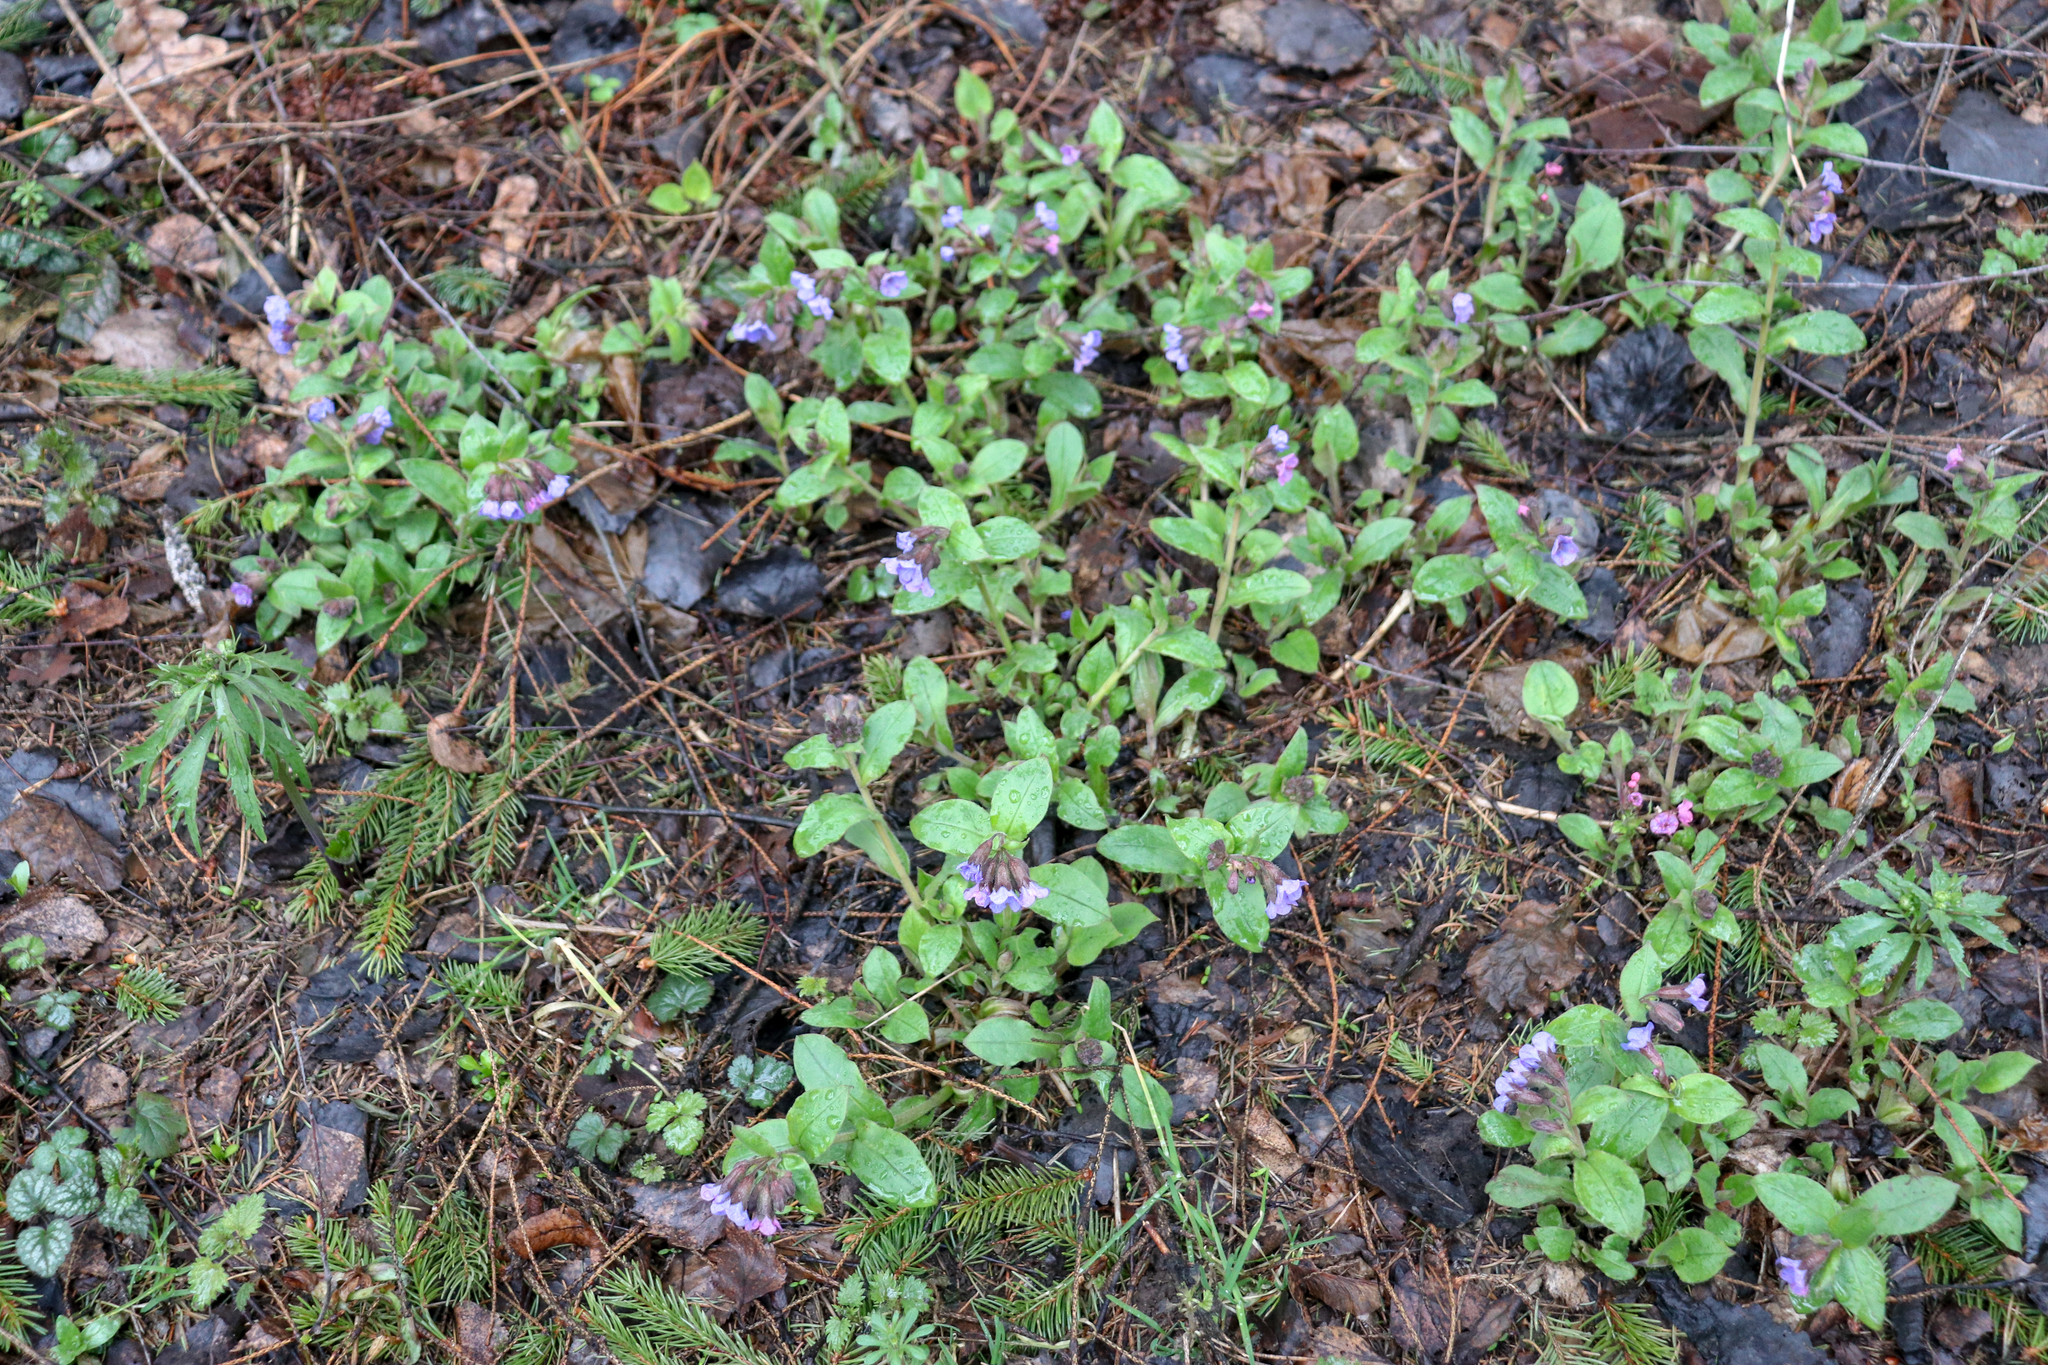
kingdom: Plantae
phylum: Tracheophyta
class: Magnoliopsida
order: Boraginales
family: Boraginaceae
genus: Pulmonaria
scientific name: Pulmonaria obscura
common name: Suffolk lungwort
